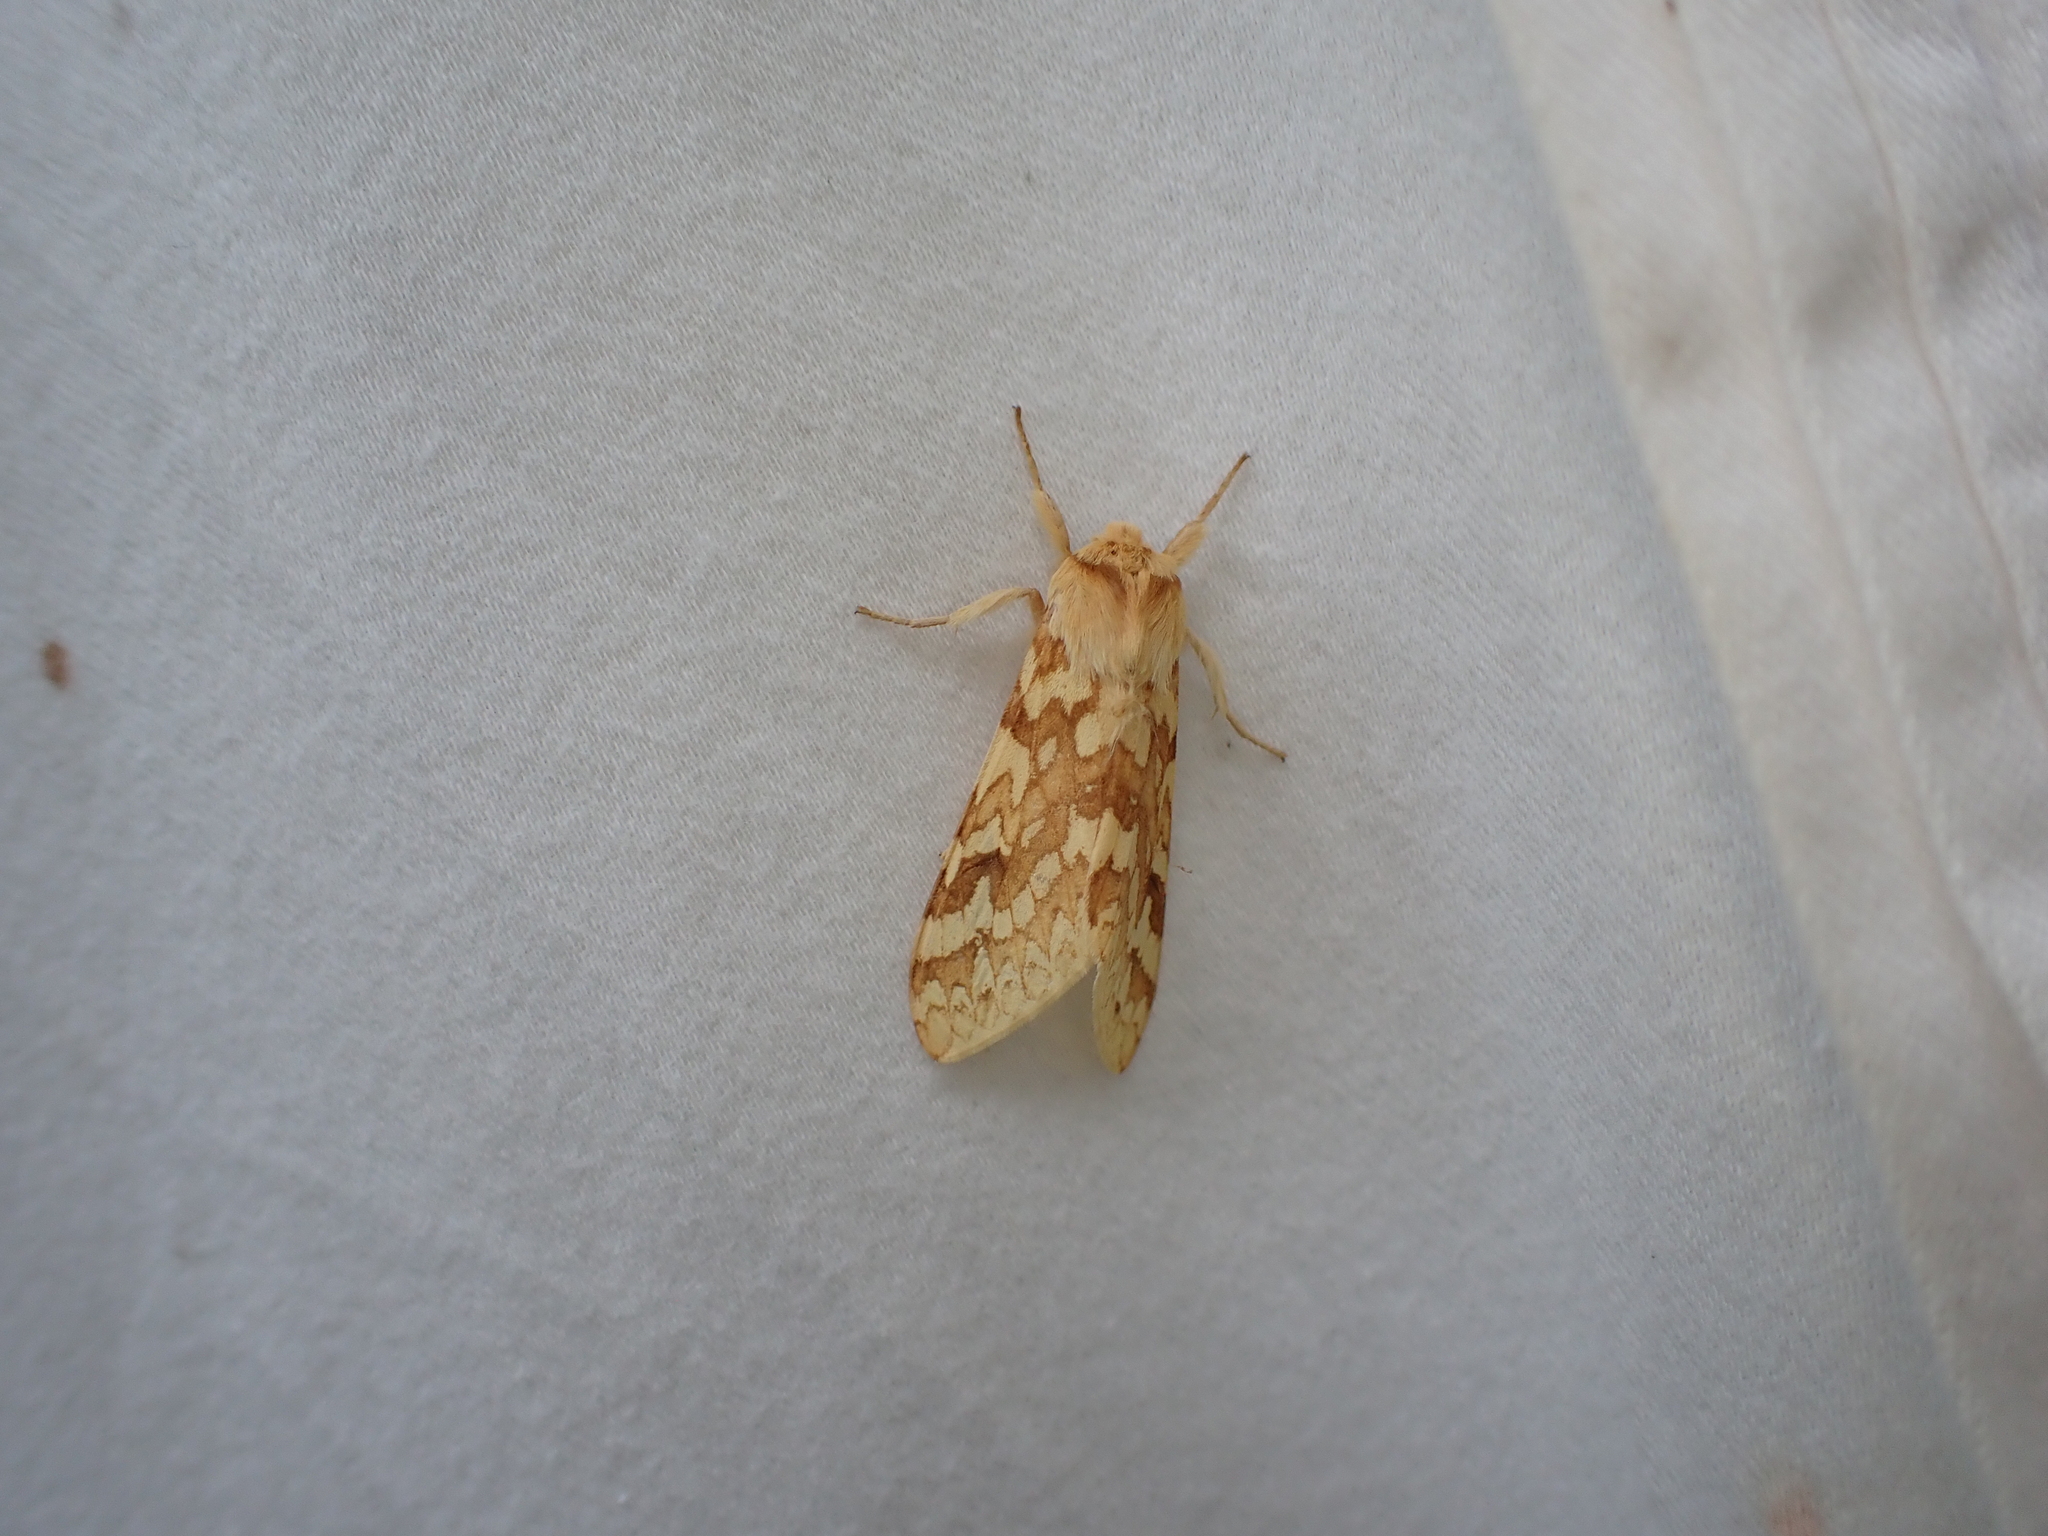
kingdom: Animalia
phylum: Arthropoda
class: Insecta
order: Lepidoptera
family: Erebidae
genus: Lophocampa
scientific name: Lophocampa maculata
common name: Spotted tussock moth
